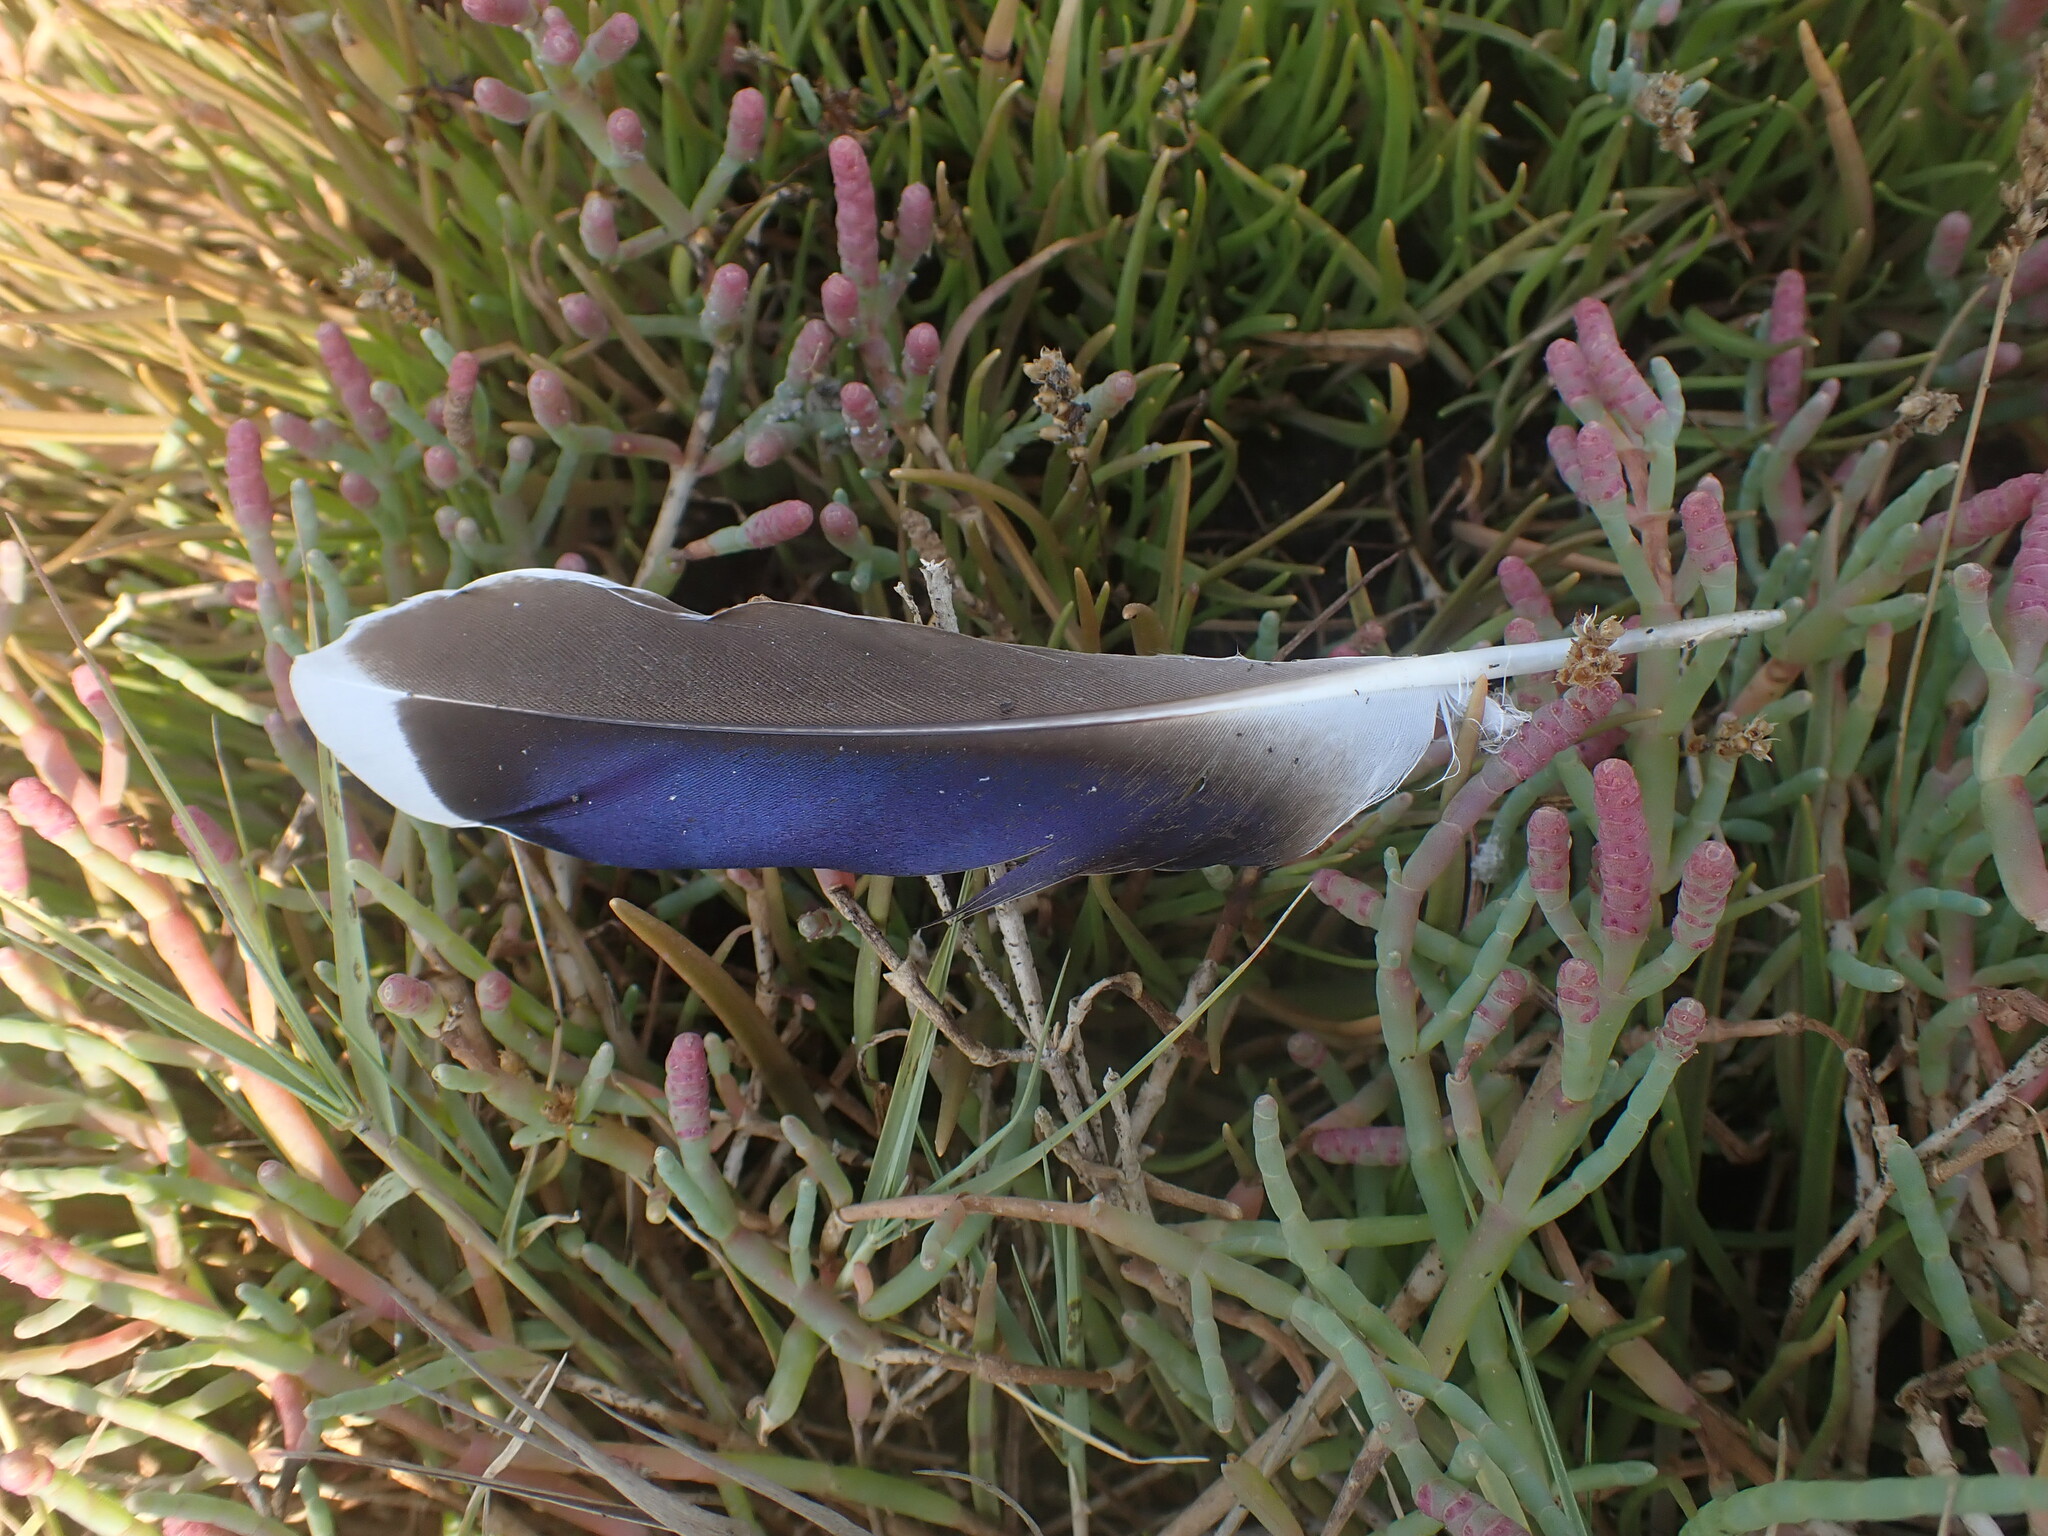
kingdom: Animalia
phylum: Chordata
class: Aves
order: Anseriformes
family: Anatidae
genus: Anas
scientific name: Anas platyrhynchos
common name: Mallard
